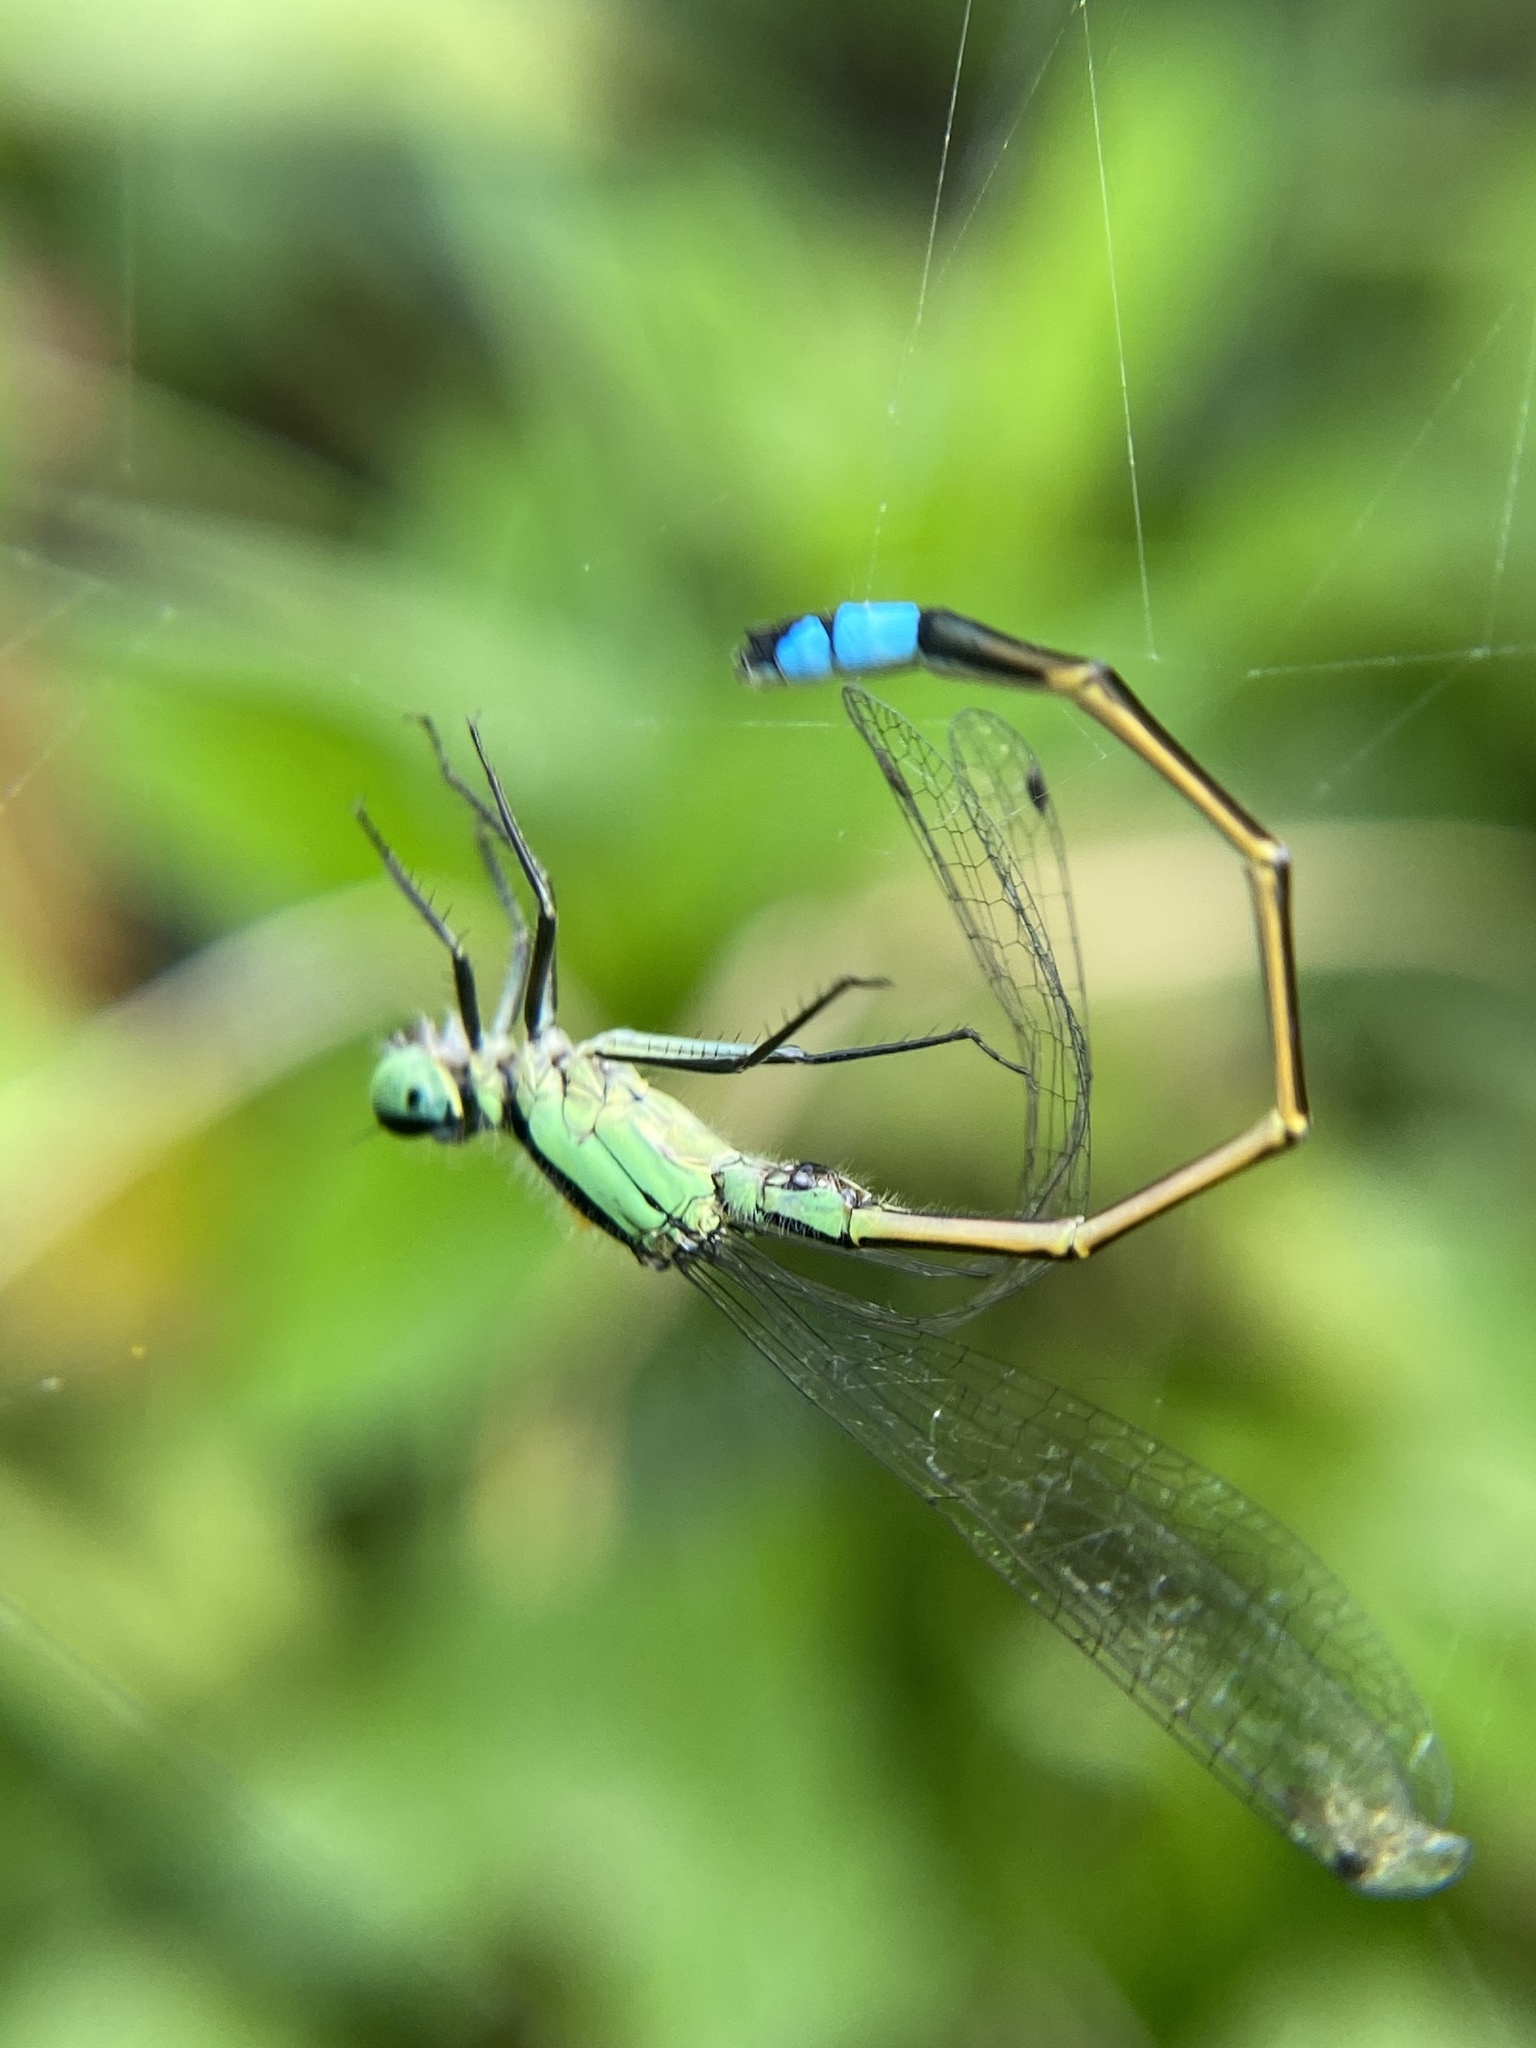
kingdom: Animalia
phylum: Arthropoda
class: Insecta
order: Odonata
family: Coenagrionidae
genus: Ischnura
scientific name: Ischnura ramburii
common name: Rambur's forktail
